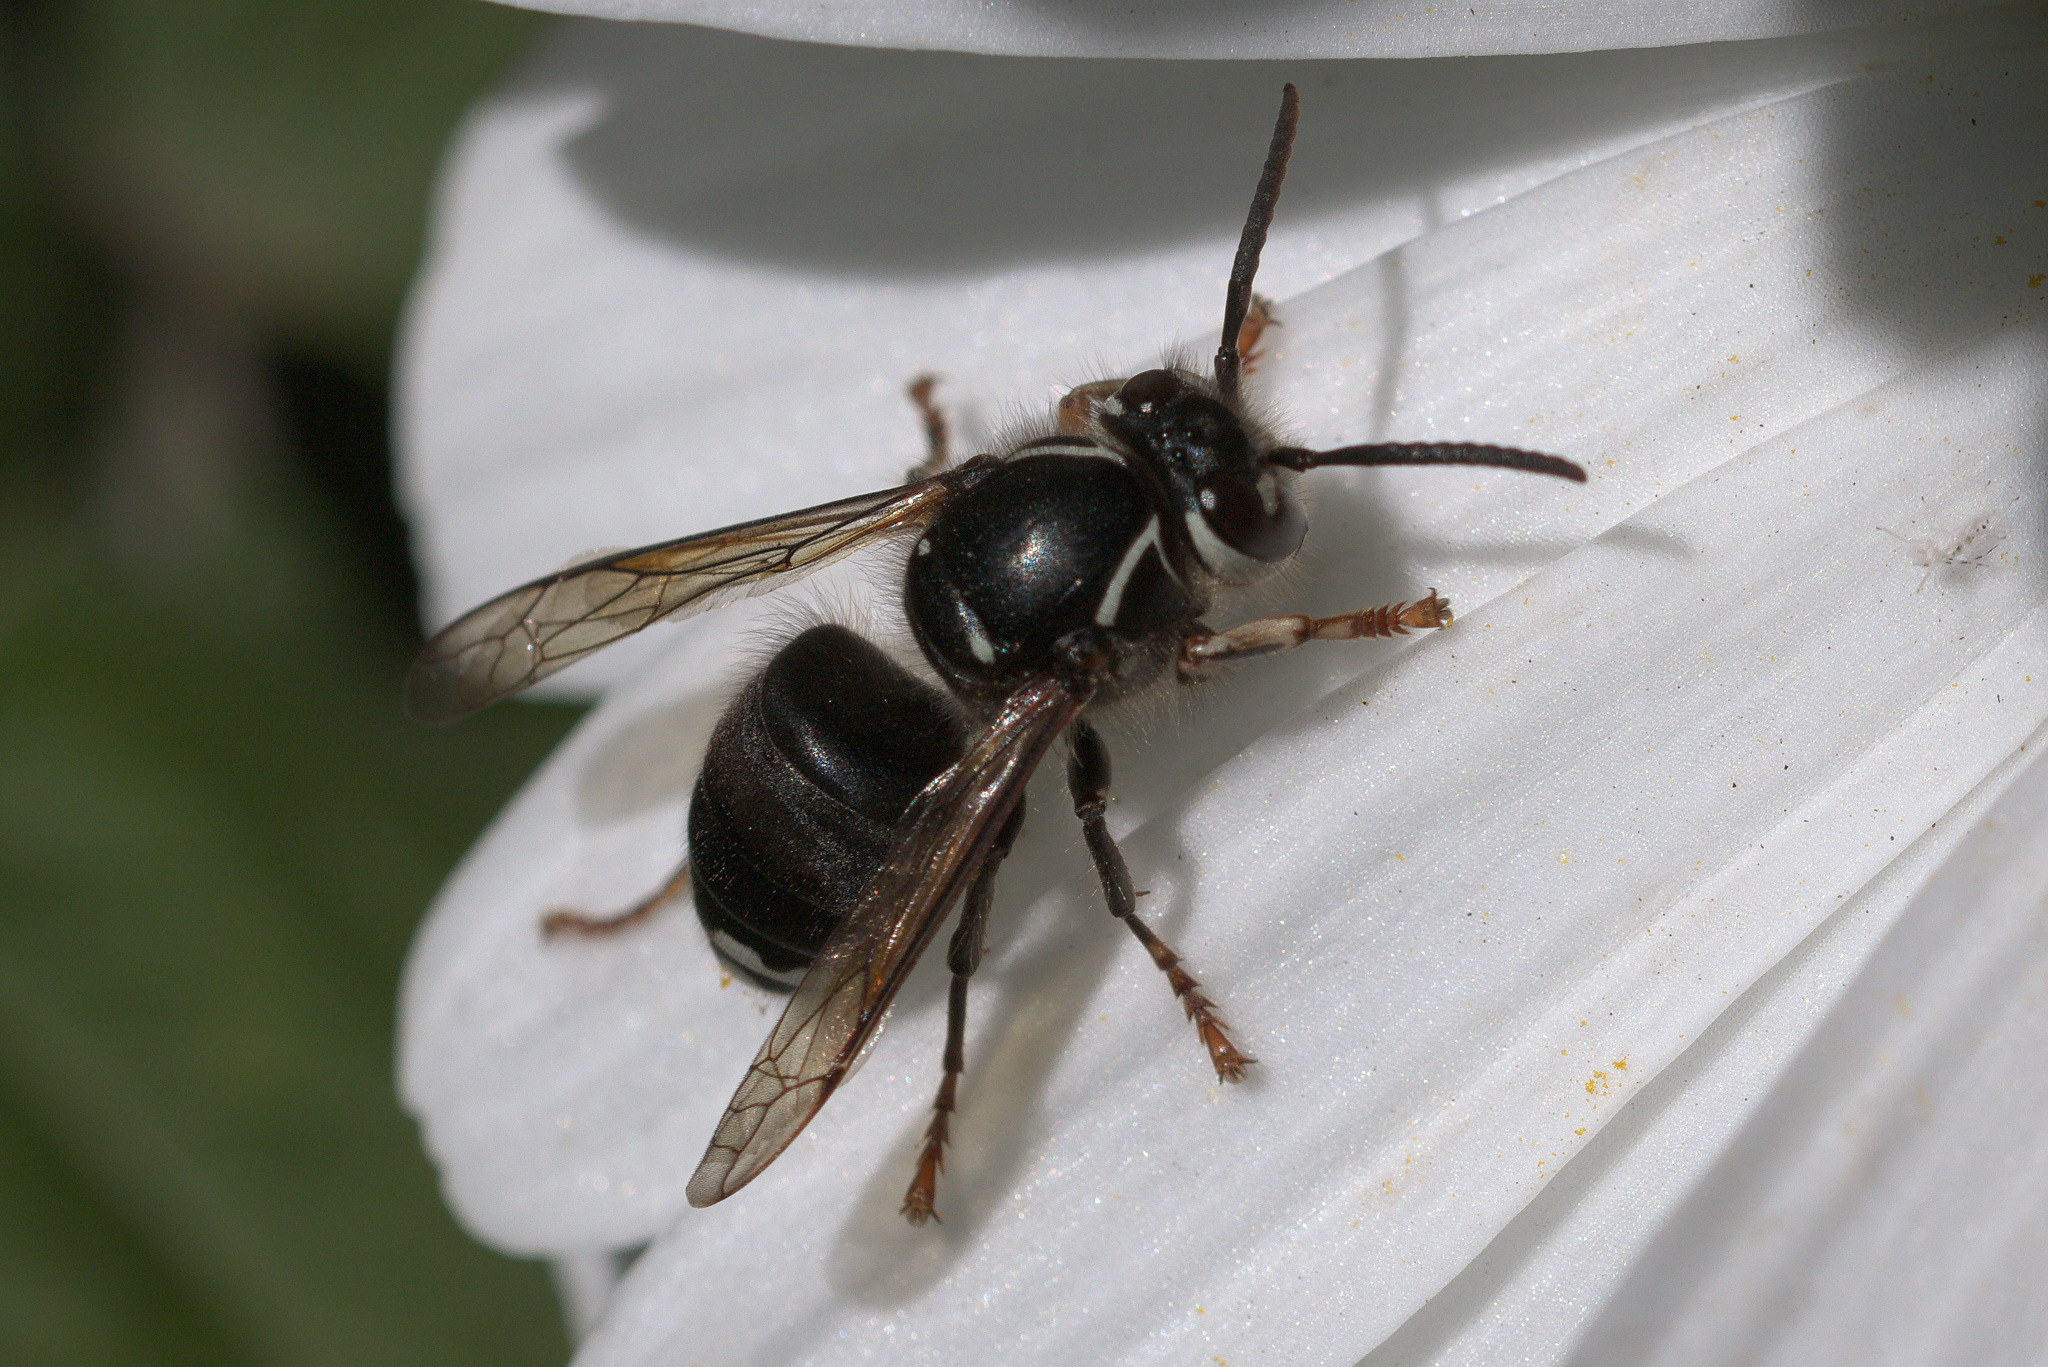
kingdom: Animalia
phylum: Arthropoda
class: Insecta
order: Hymenoptera
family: Vespidae
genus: Dolichovespula
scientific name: Dolichovespula maculata
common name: Bald-faced hornet
